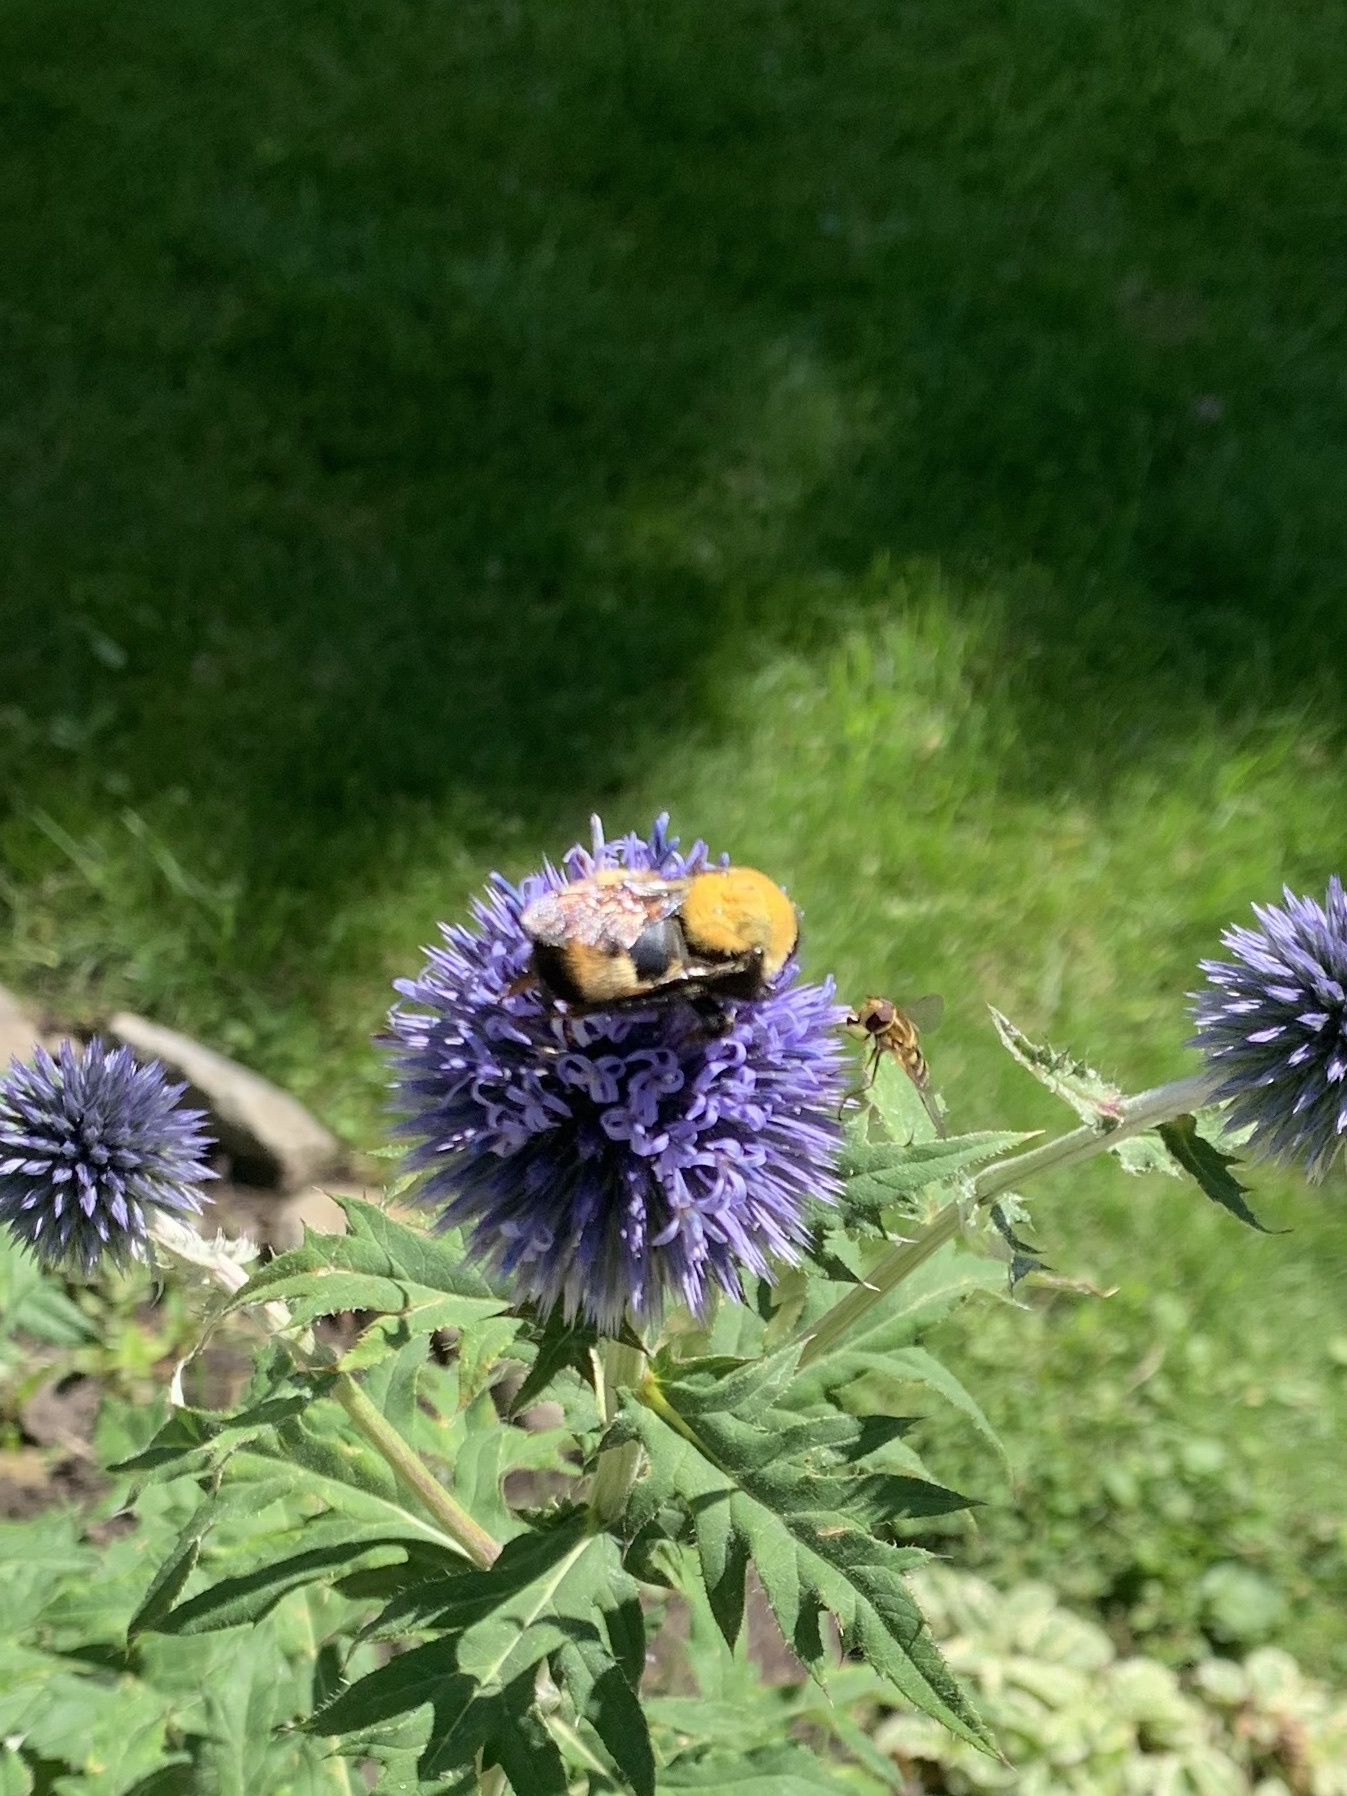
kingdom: Animalia
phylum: Arthropoda
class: Insecta
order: Hymenoptera
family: Apidae
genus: Bombus
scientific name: Bombus nevadensis
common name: Nevada bumble bee
